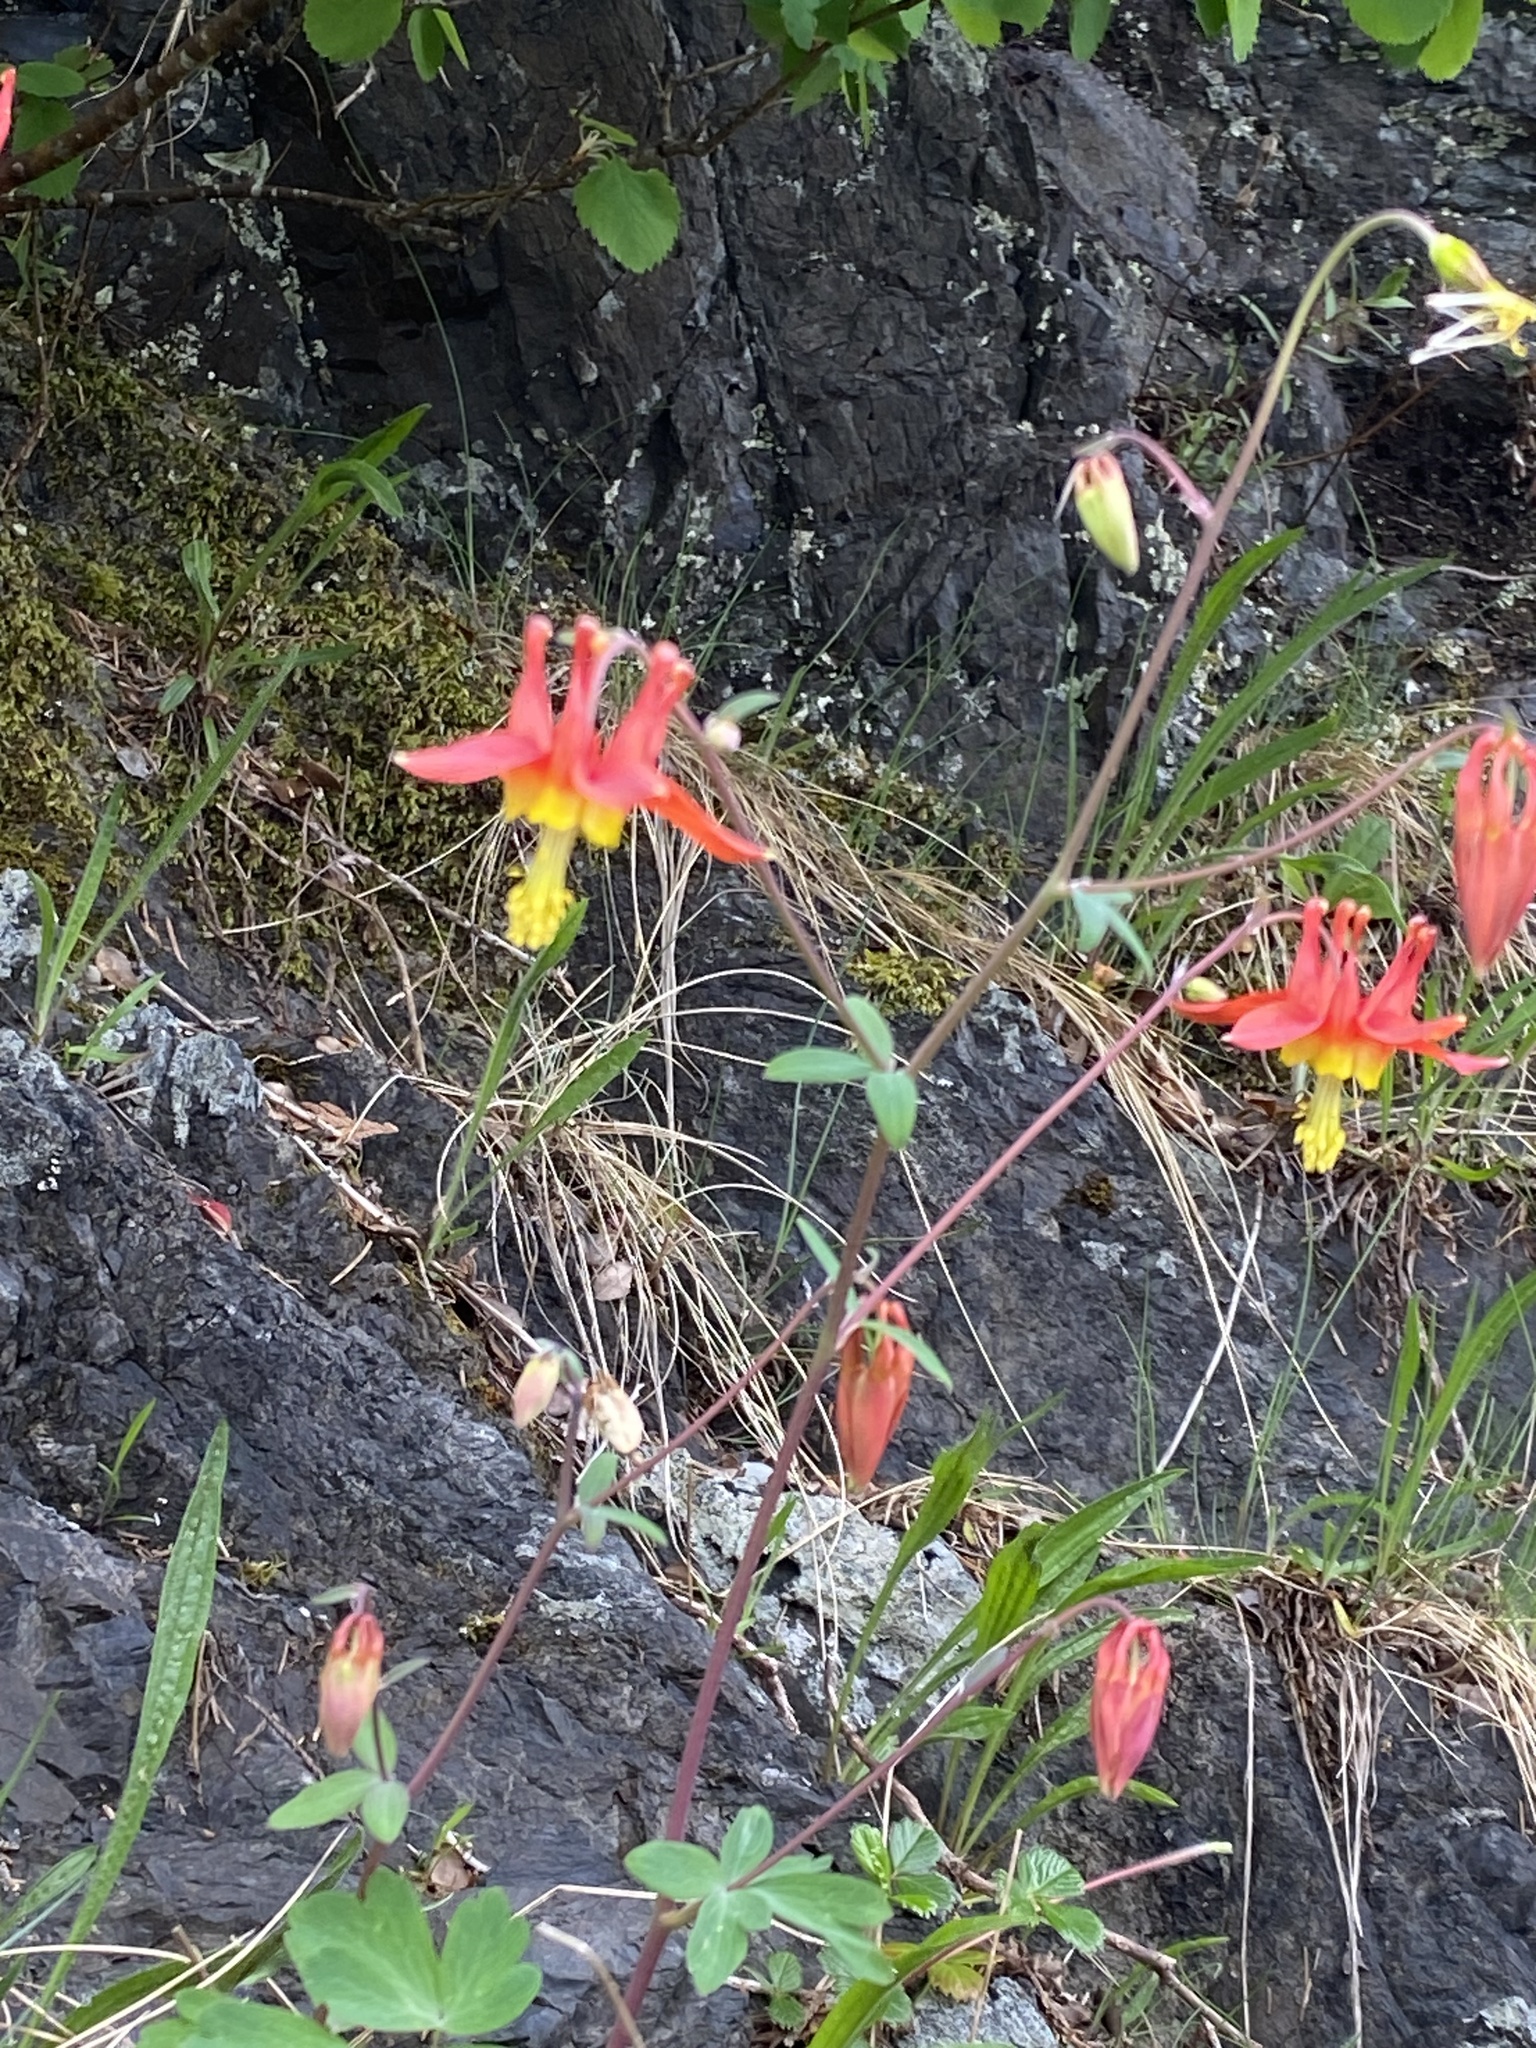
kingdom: Plantae
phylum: Tracheophyta
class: Magnoliopsida
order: Ranunculales
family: Ranunculaceae
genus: Aquilegia
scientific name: Aquilegia formosa
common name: Sitka columbine
